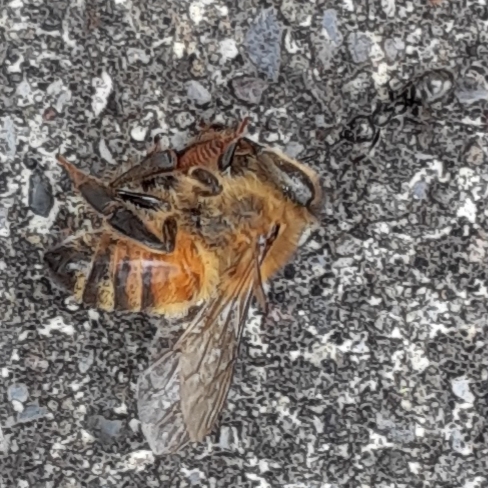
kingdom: Animalia
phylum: Arthropoda
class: Insecta
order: Hymenoptera
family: Apidae
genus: Apis
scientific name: Apis mellifera
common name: Honey bee
